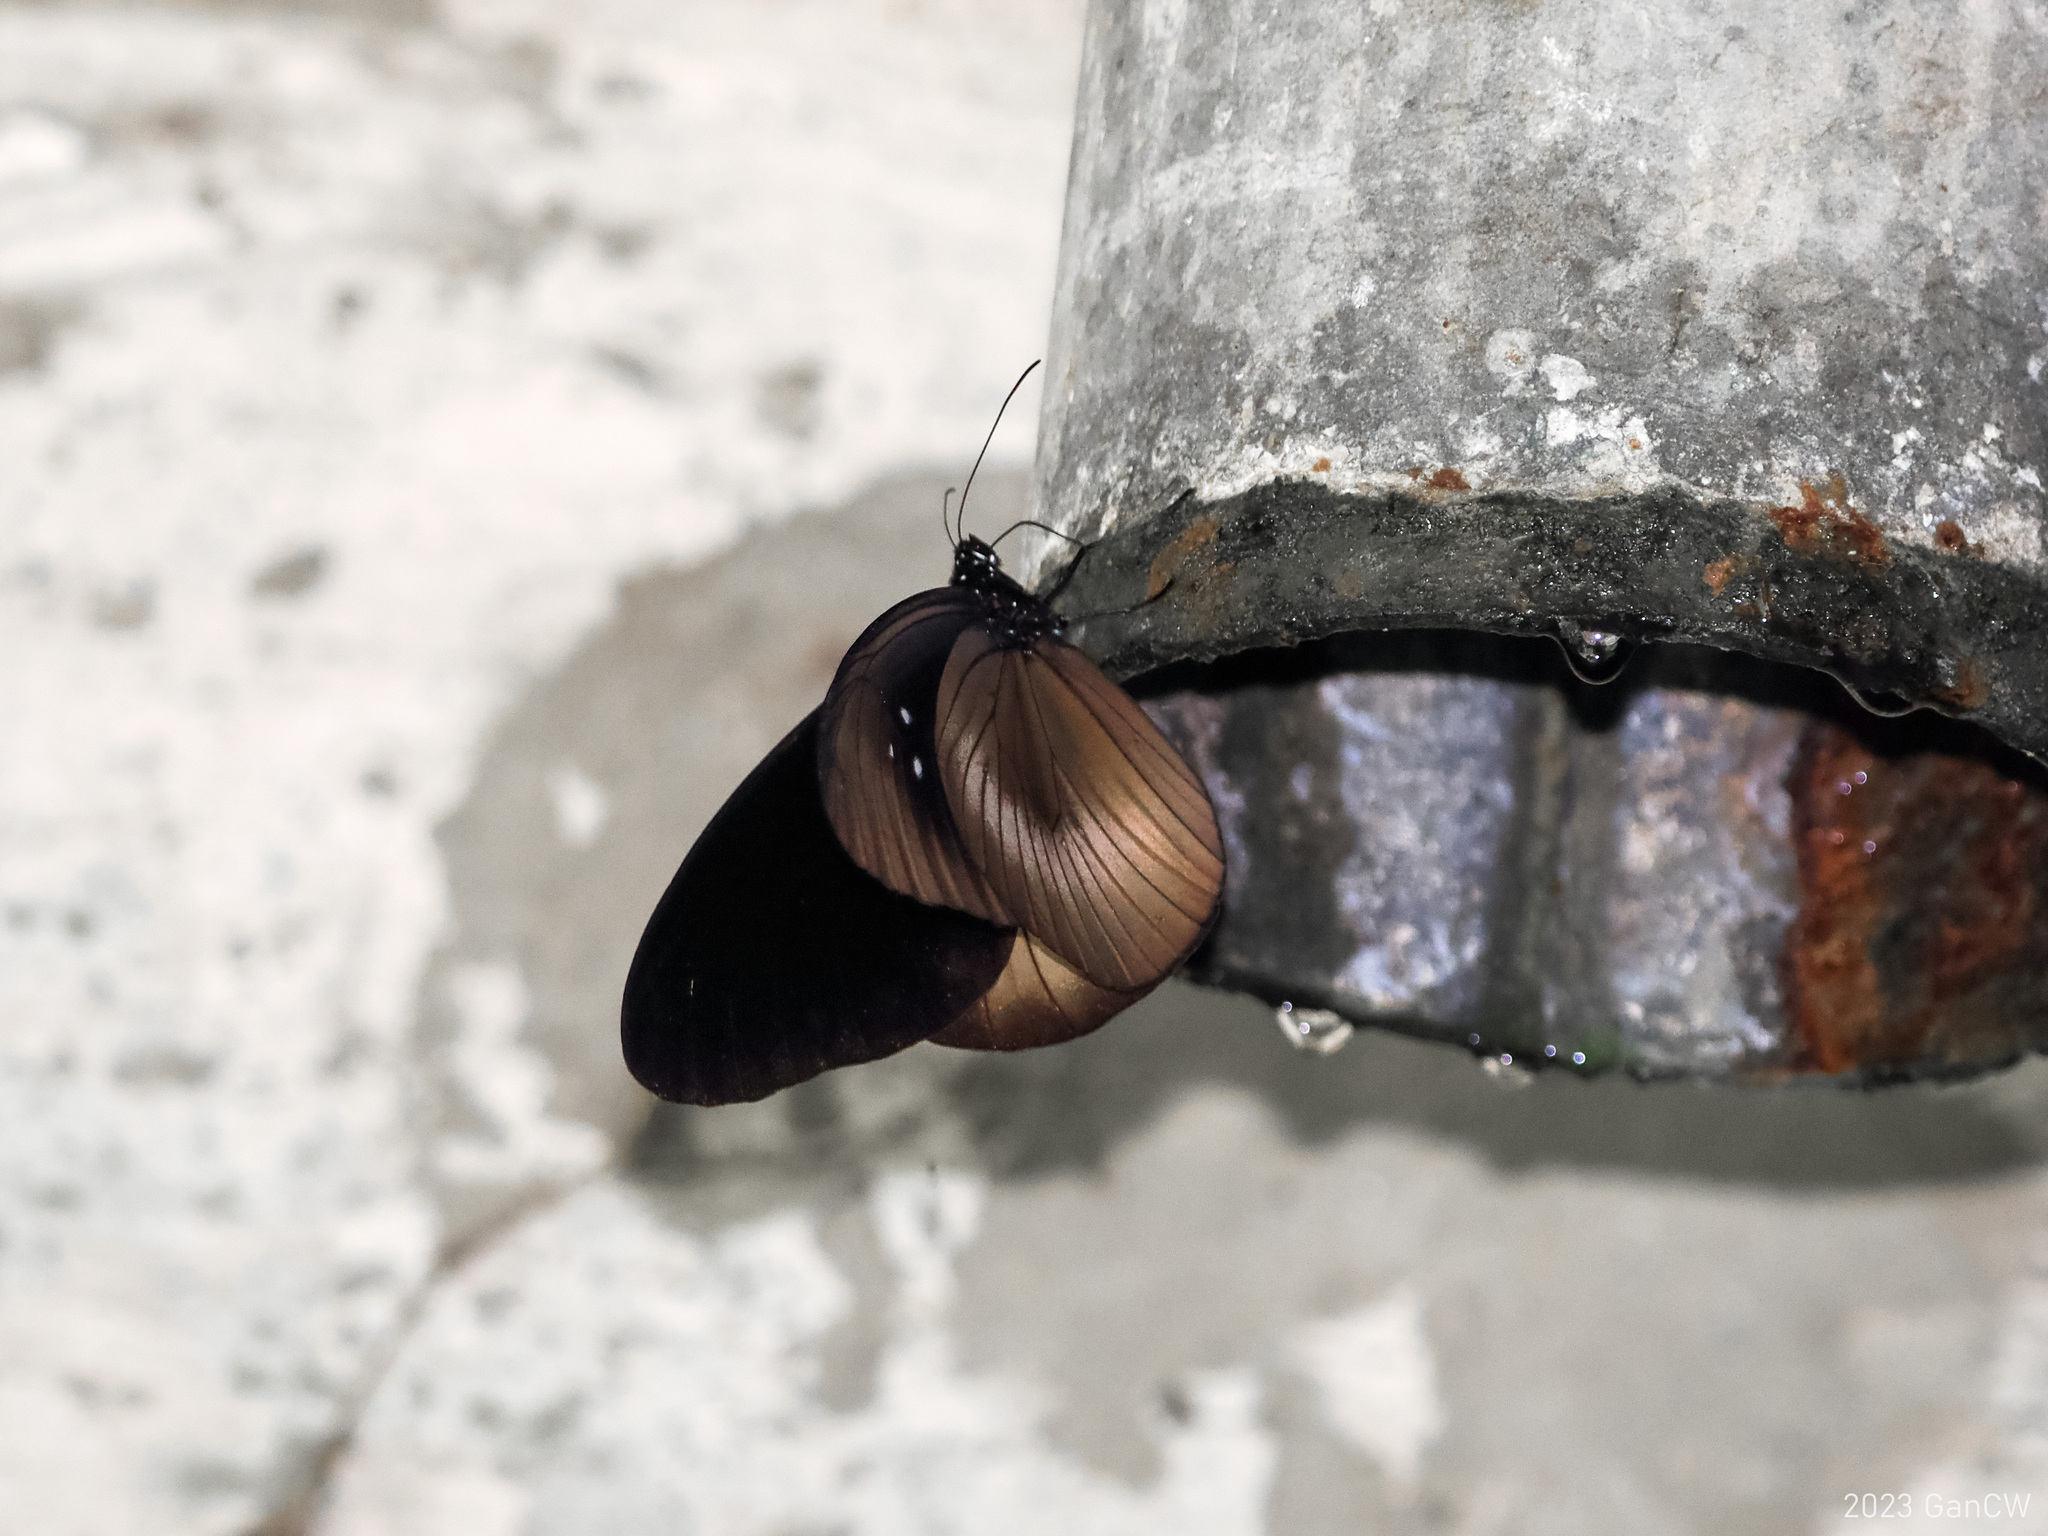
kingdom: Animalia
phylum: Arthropoda
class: Insecta
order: Lepidoptera
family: Nymphalidae
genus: Euploea
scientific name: Euploea magou
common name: Magou
